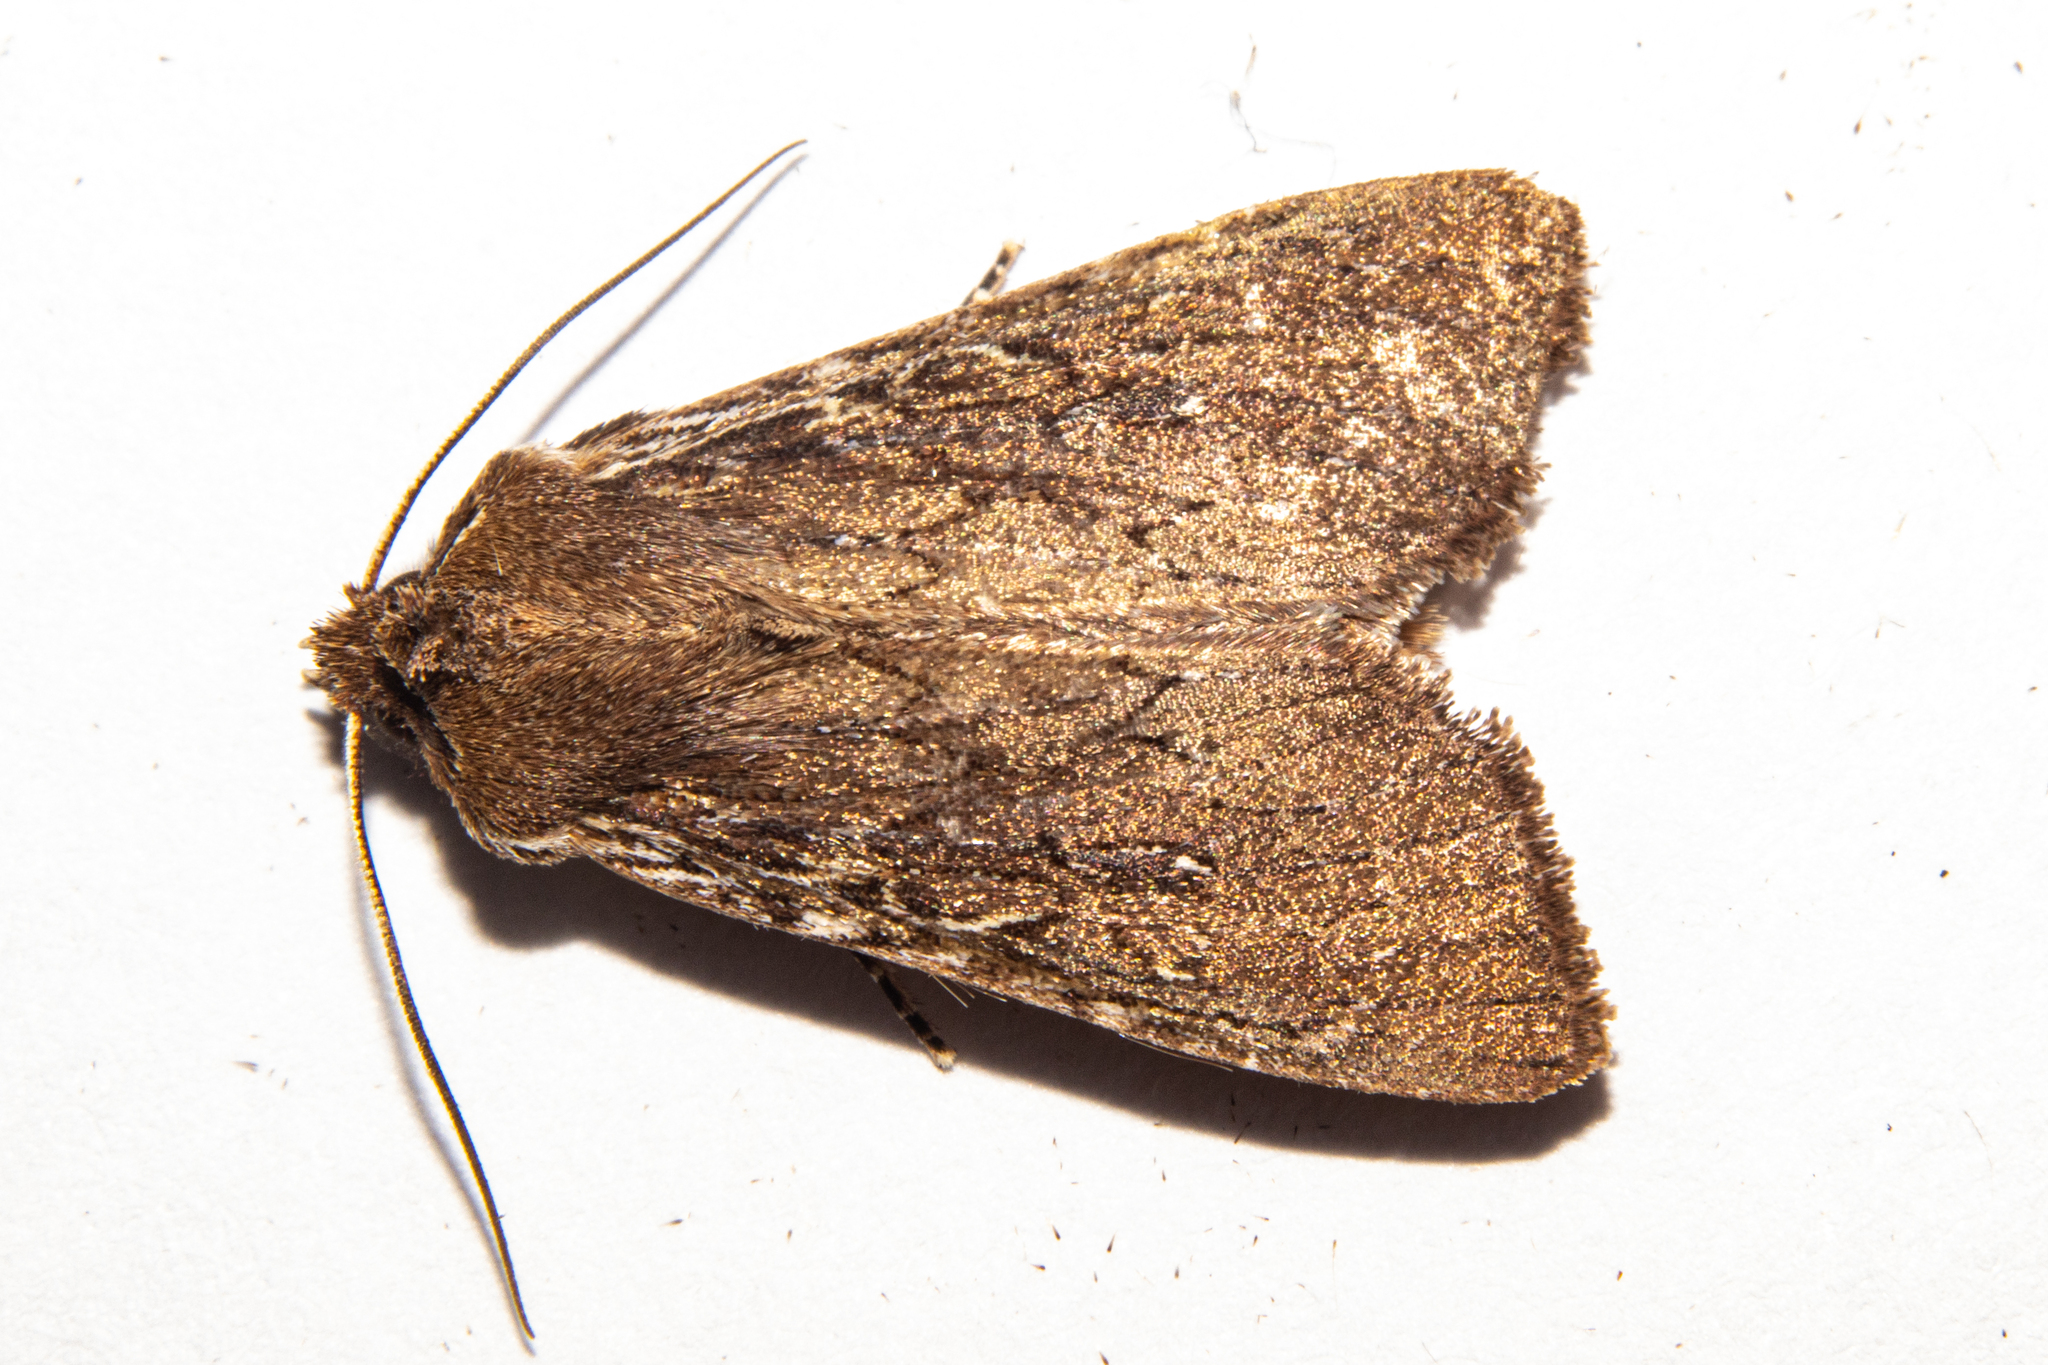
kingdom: Animalia
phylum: Arthropoda
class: Insecta
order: Lepidoptera
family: Noctuidae
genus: Ichneutica
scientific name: Ichneutica
